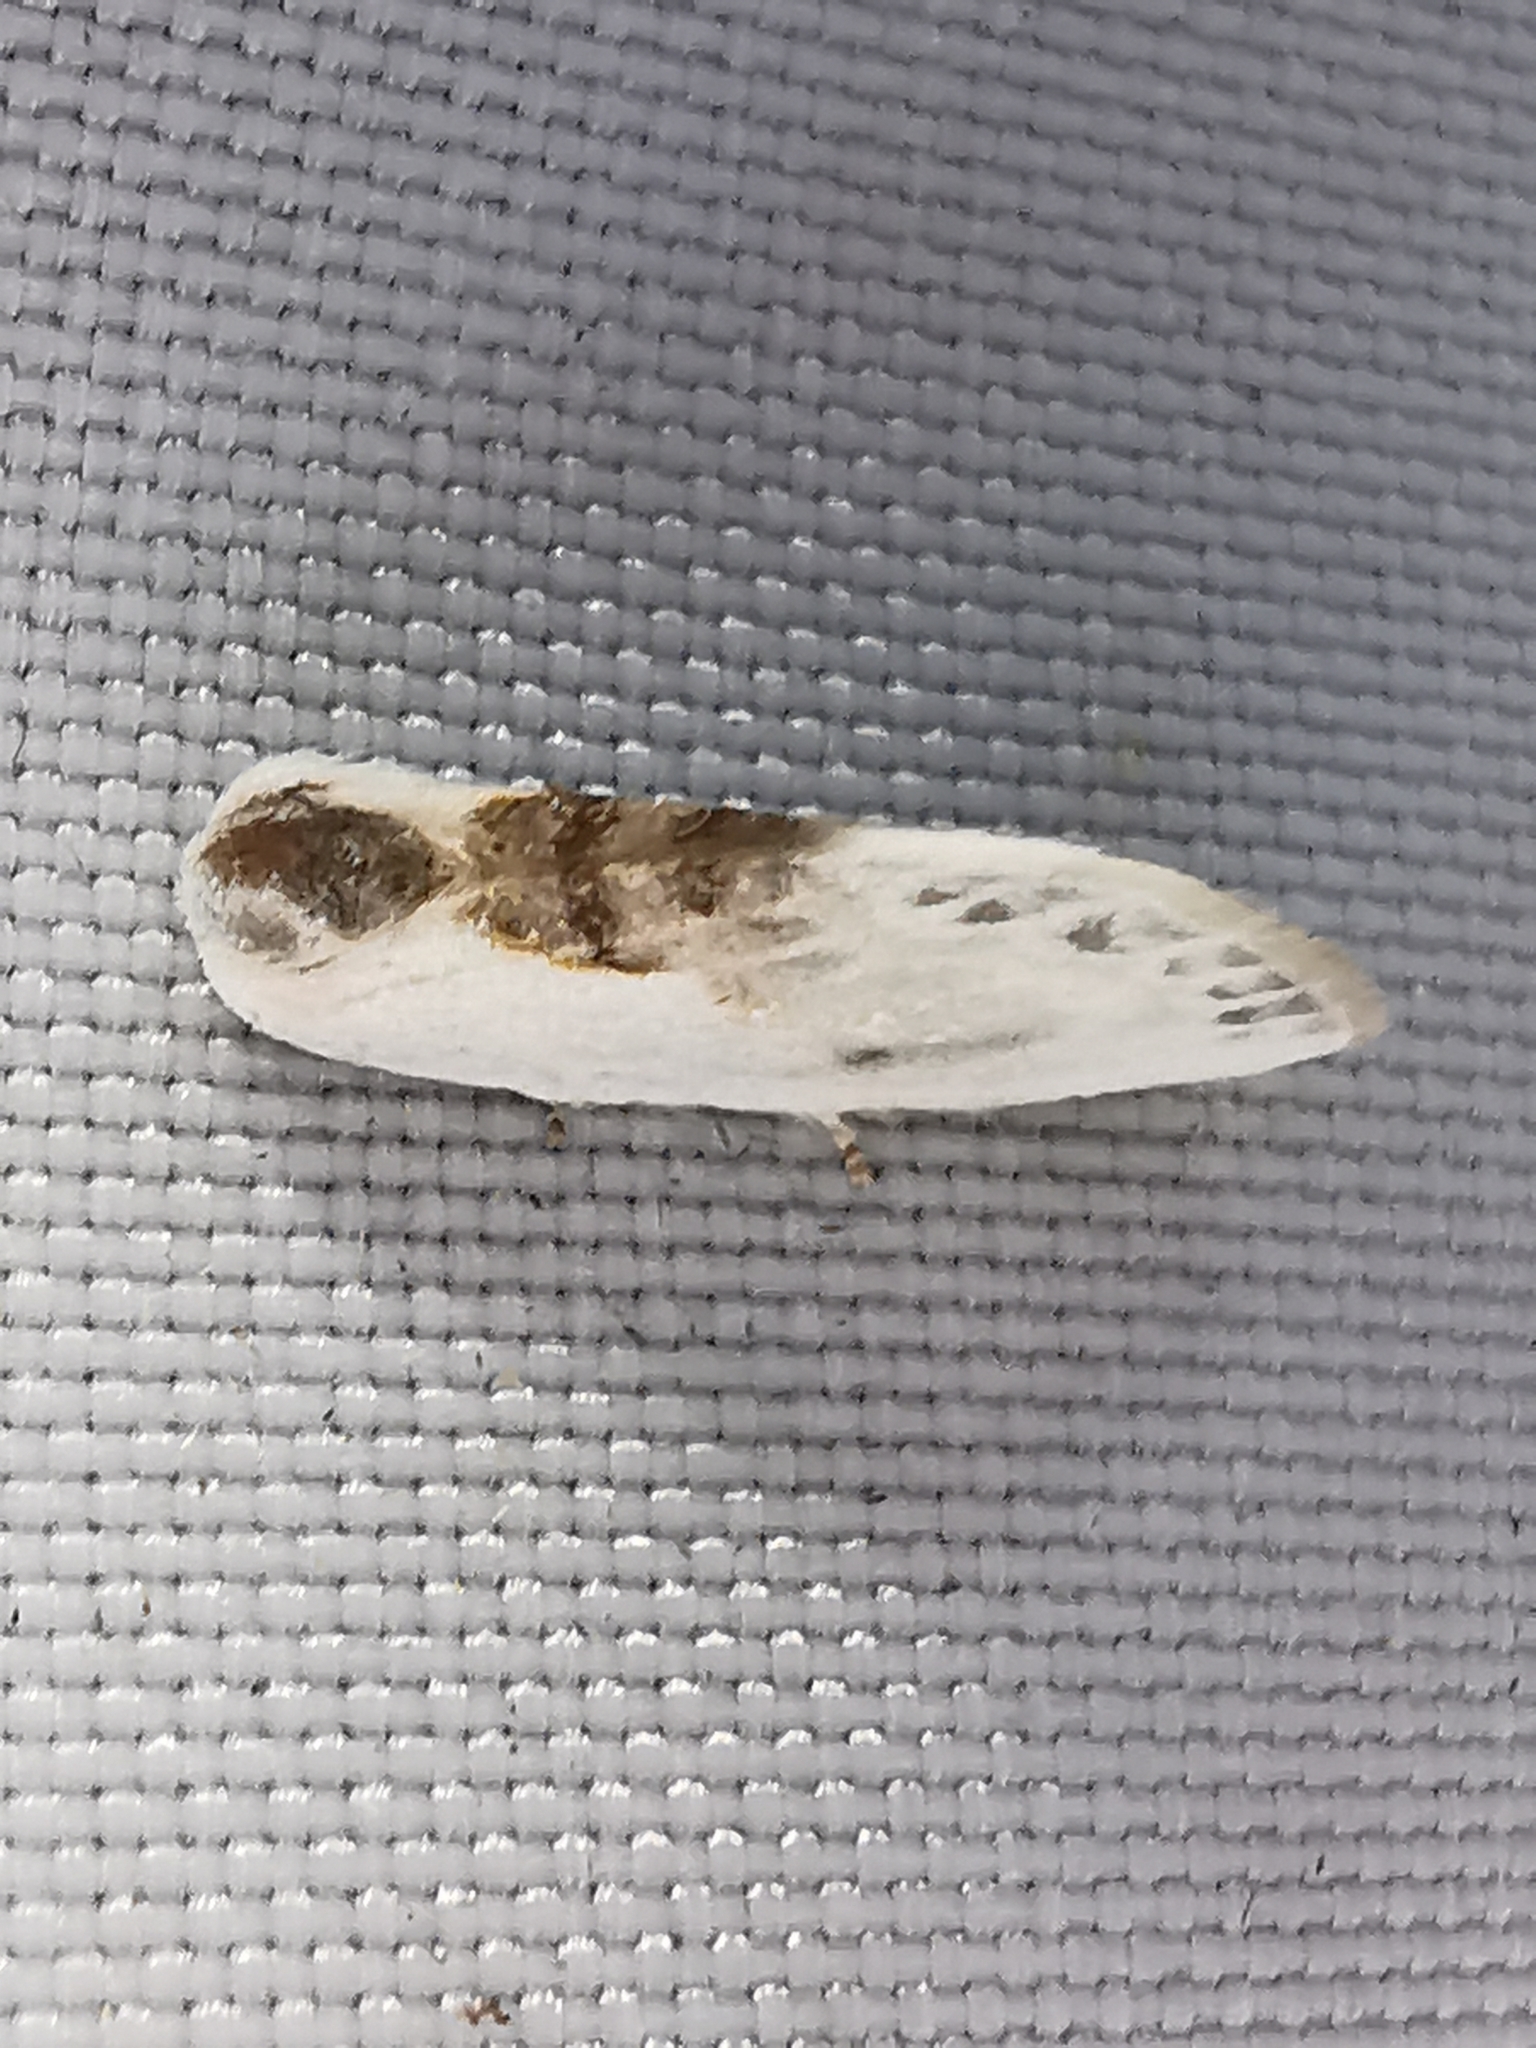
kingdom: Animalia
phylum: Arthropoda
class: Insecta
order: Lepidoptera
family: Drepanidae
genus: Cilix
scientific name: Cilix glaucata
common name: Chinese character
